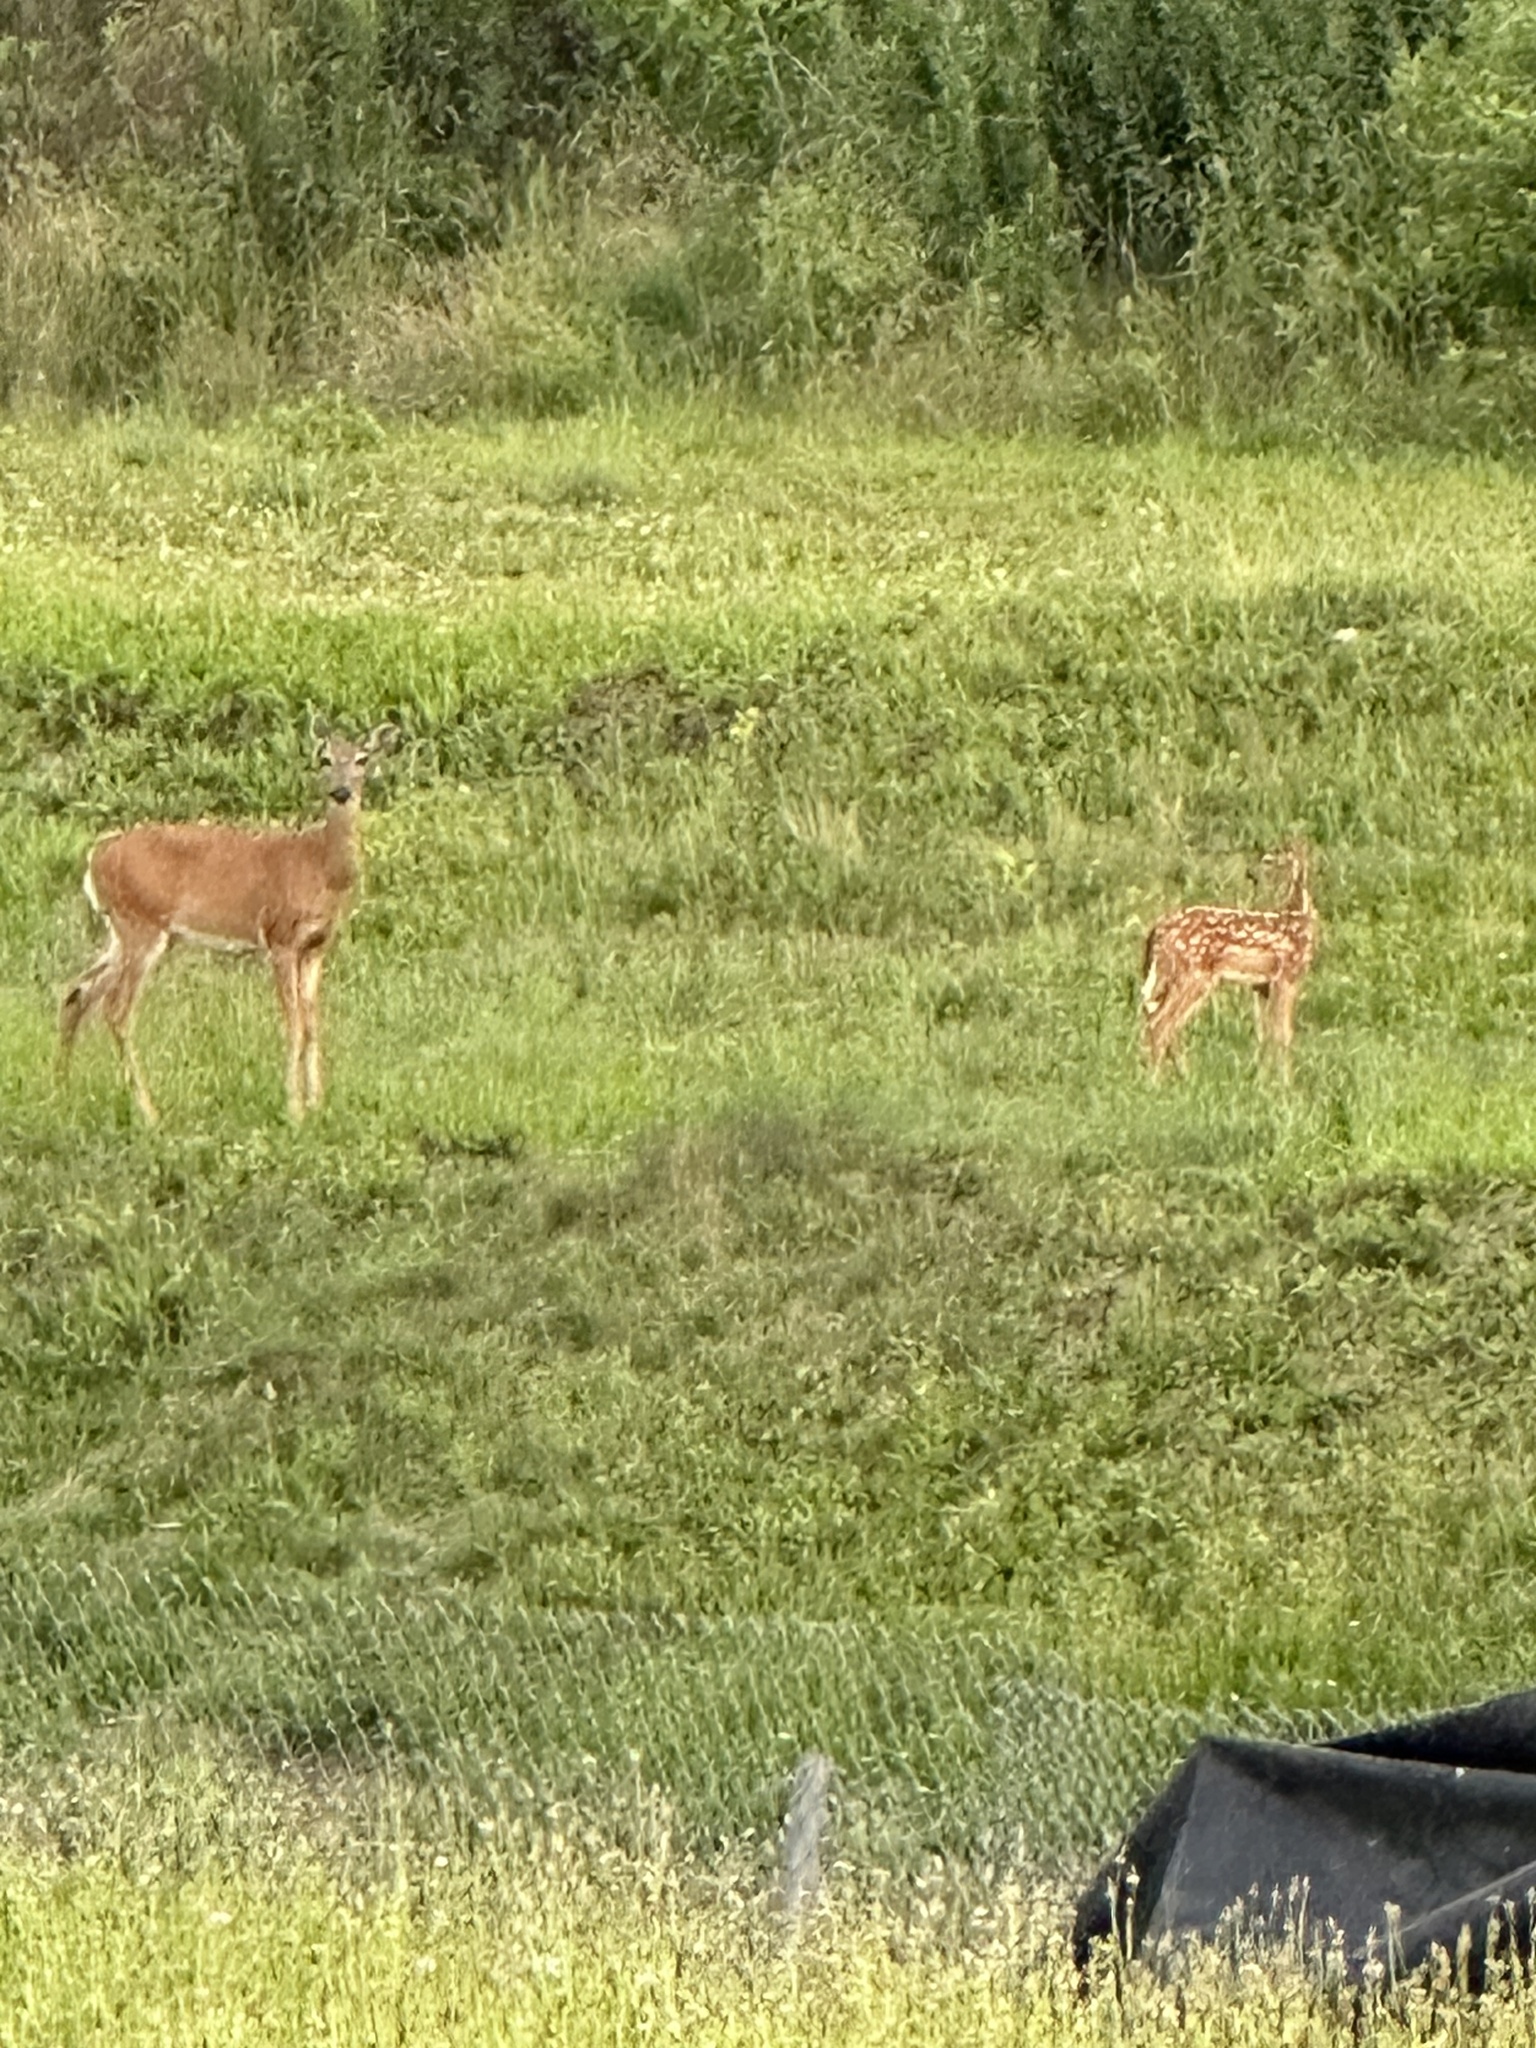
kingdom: Animalia
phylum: Chordata
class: Mammalia
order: Artiodactyla
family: Cervidae
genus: Odocoileus
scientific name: Odocoileus virginianus
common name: White-tailed deer
